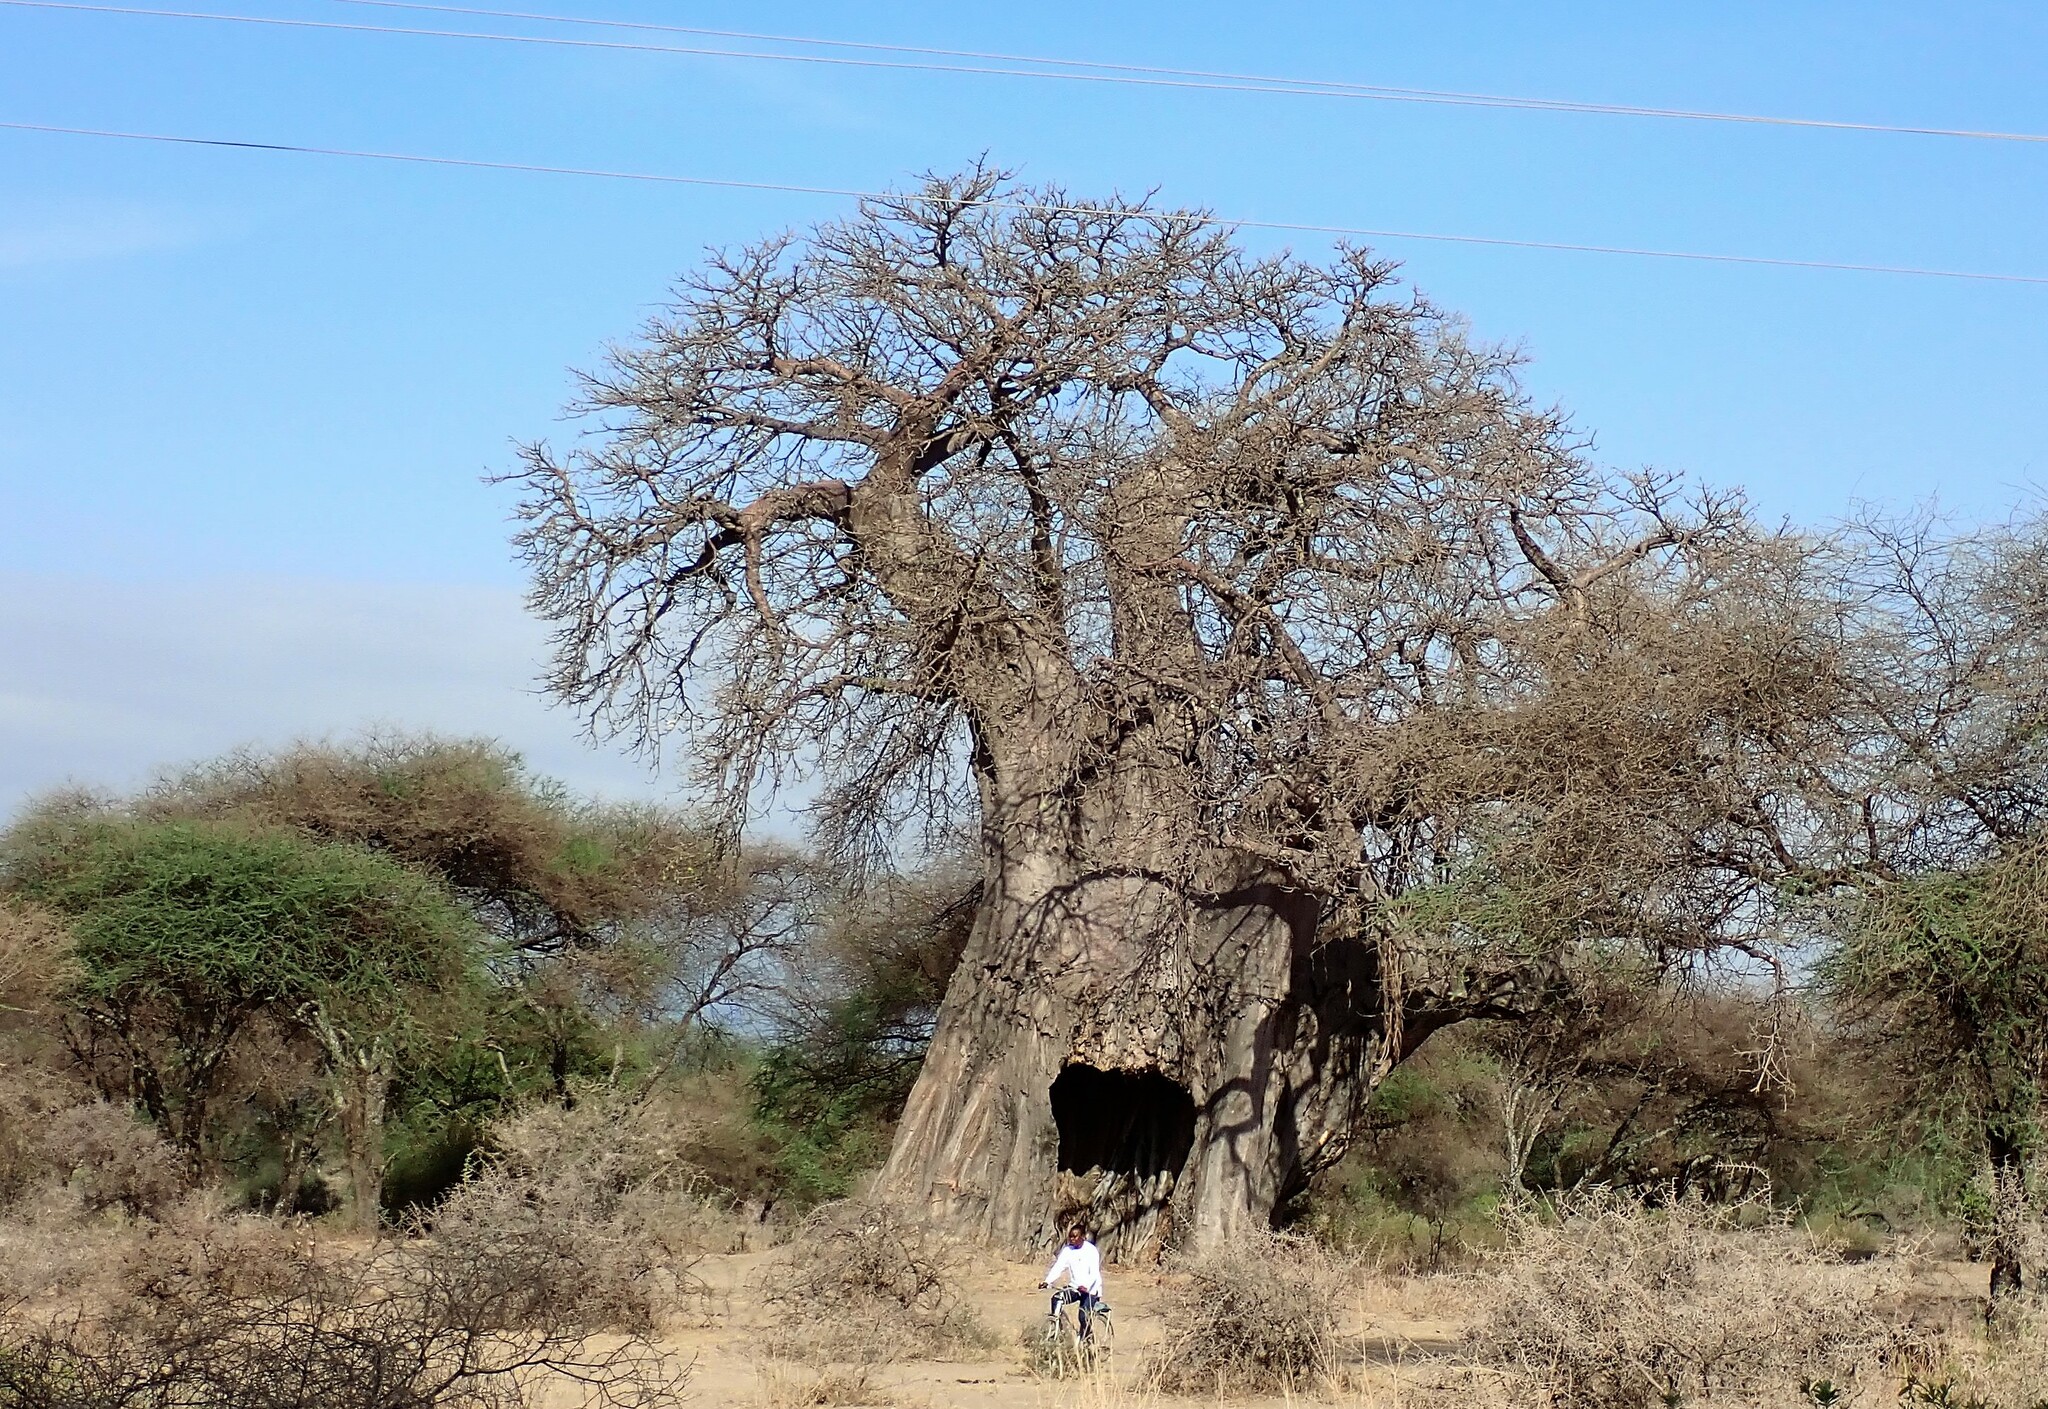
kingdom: Plantae
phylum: Tracheophyta
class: Magnoliopsida
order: Malvales
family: Malvaceae
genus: Adansonia
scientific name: Adansonia digitata
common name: Dead-rat-tree
